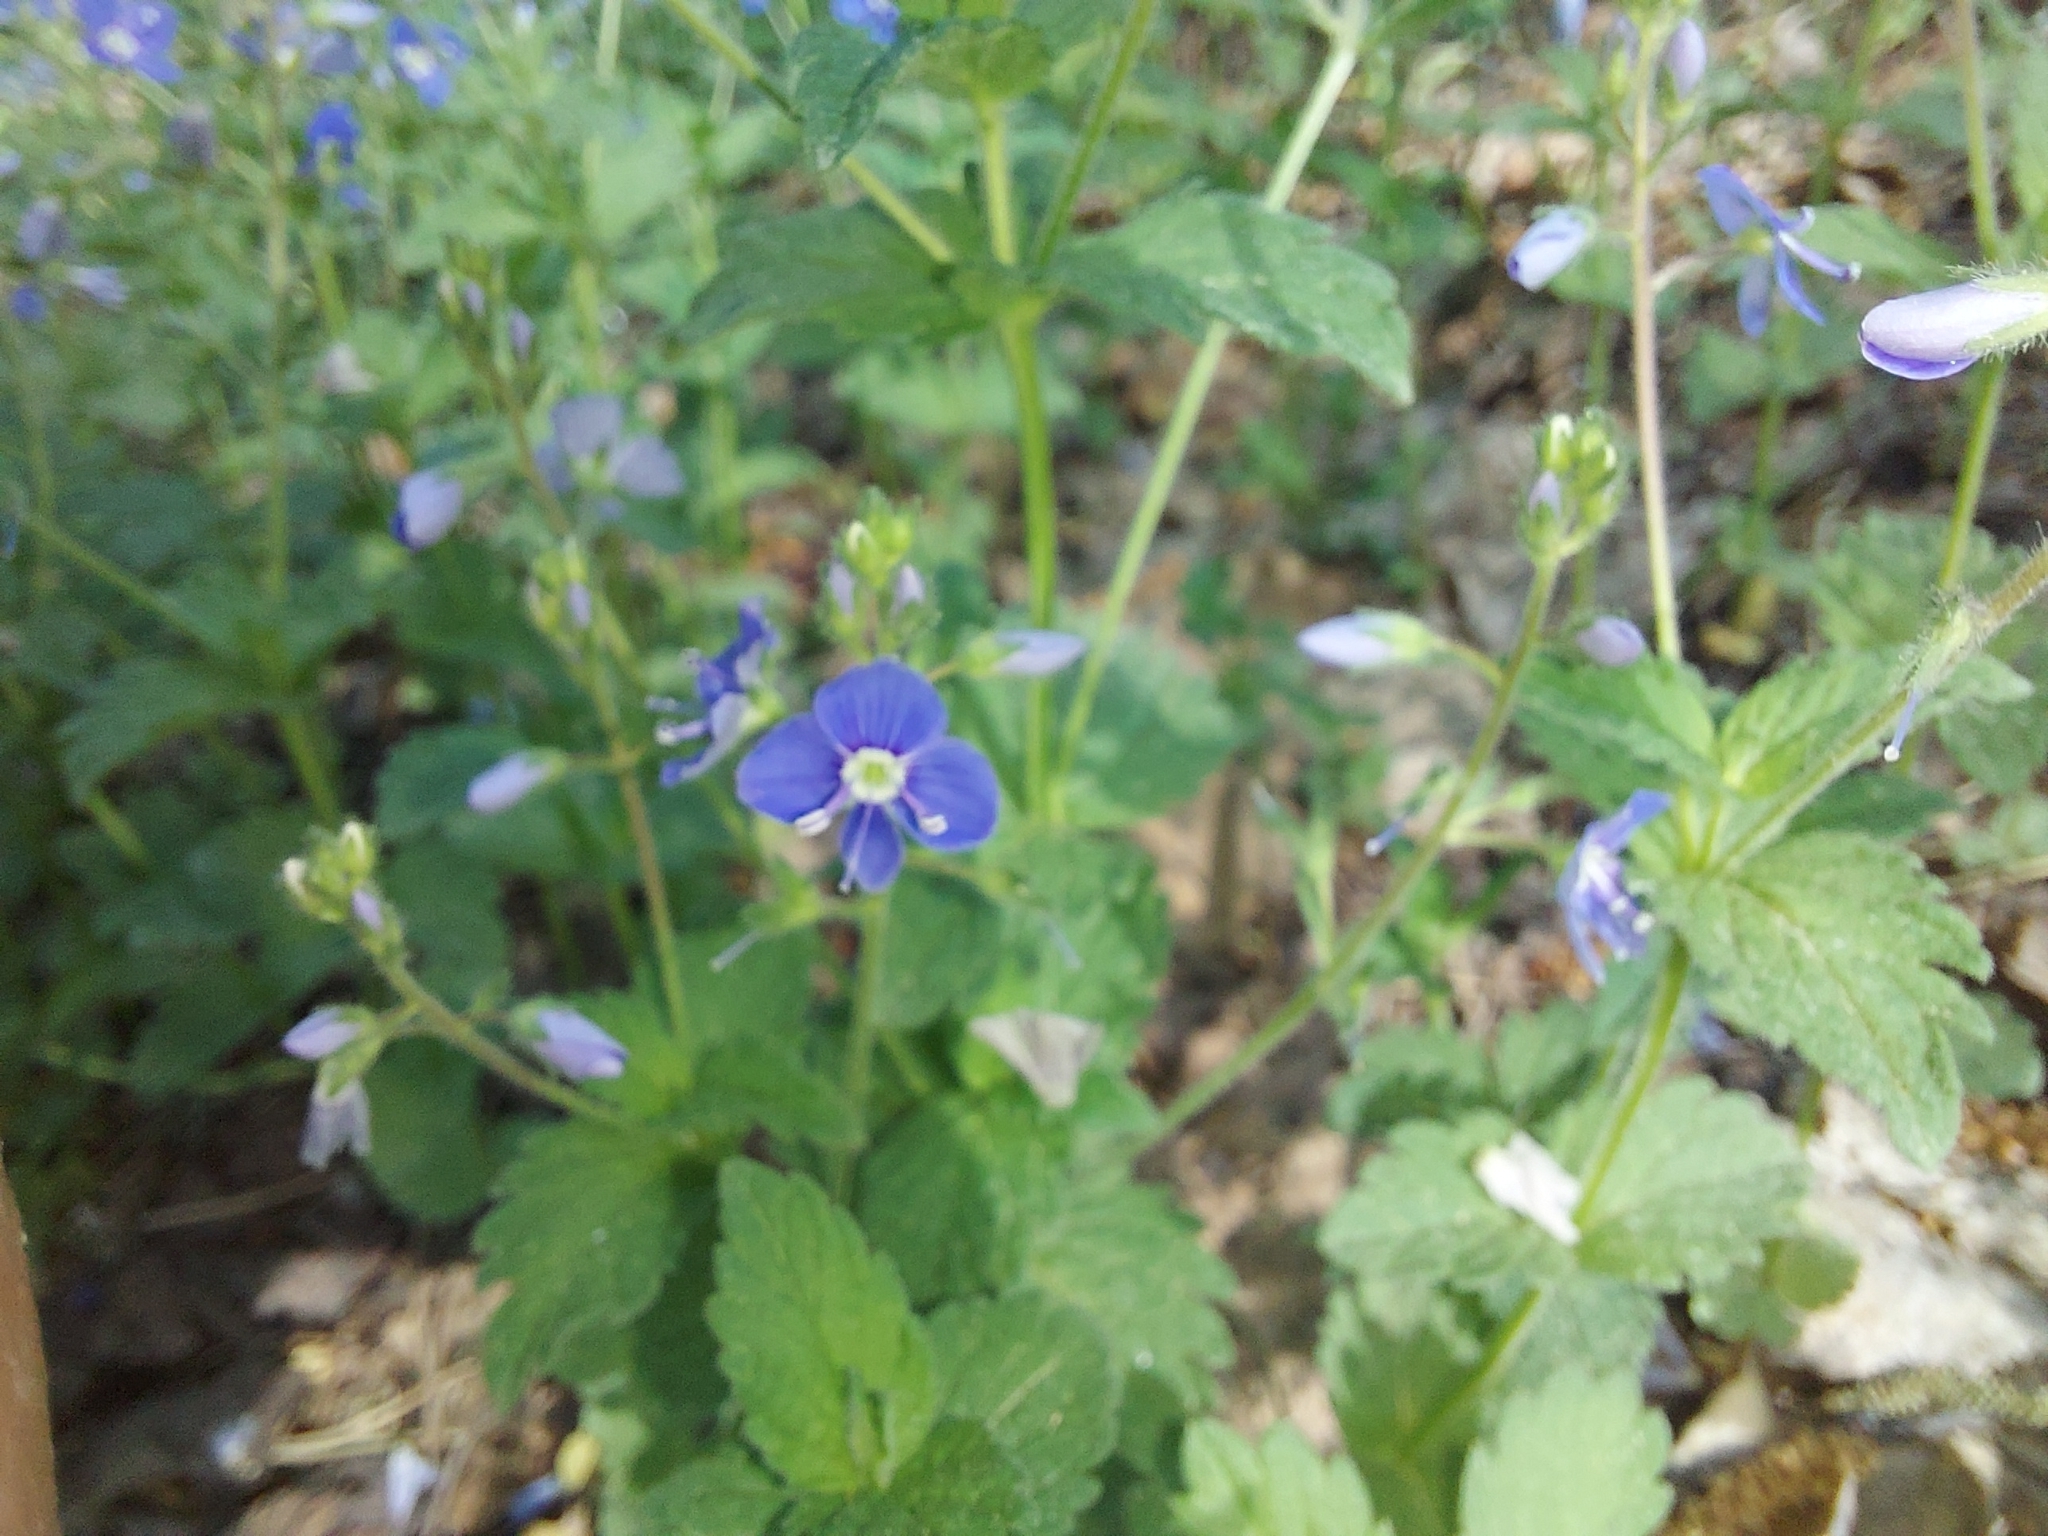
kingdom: Plantae
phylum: Tracheophyta
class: Magnoliopsida
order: Lamiales
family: Plantaginaceae
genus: Veronica
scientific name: Veronica chamaedrys
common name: Germander speedwell
